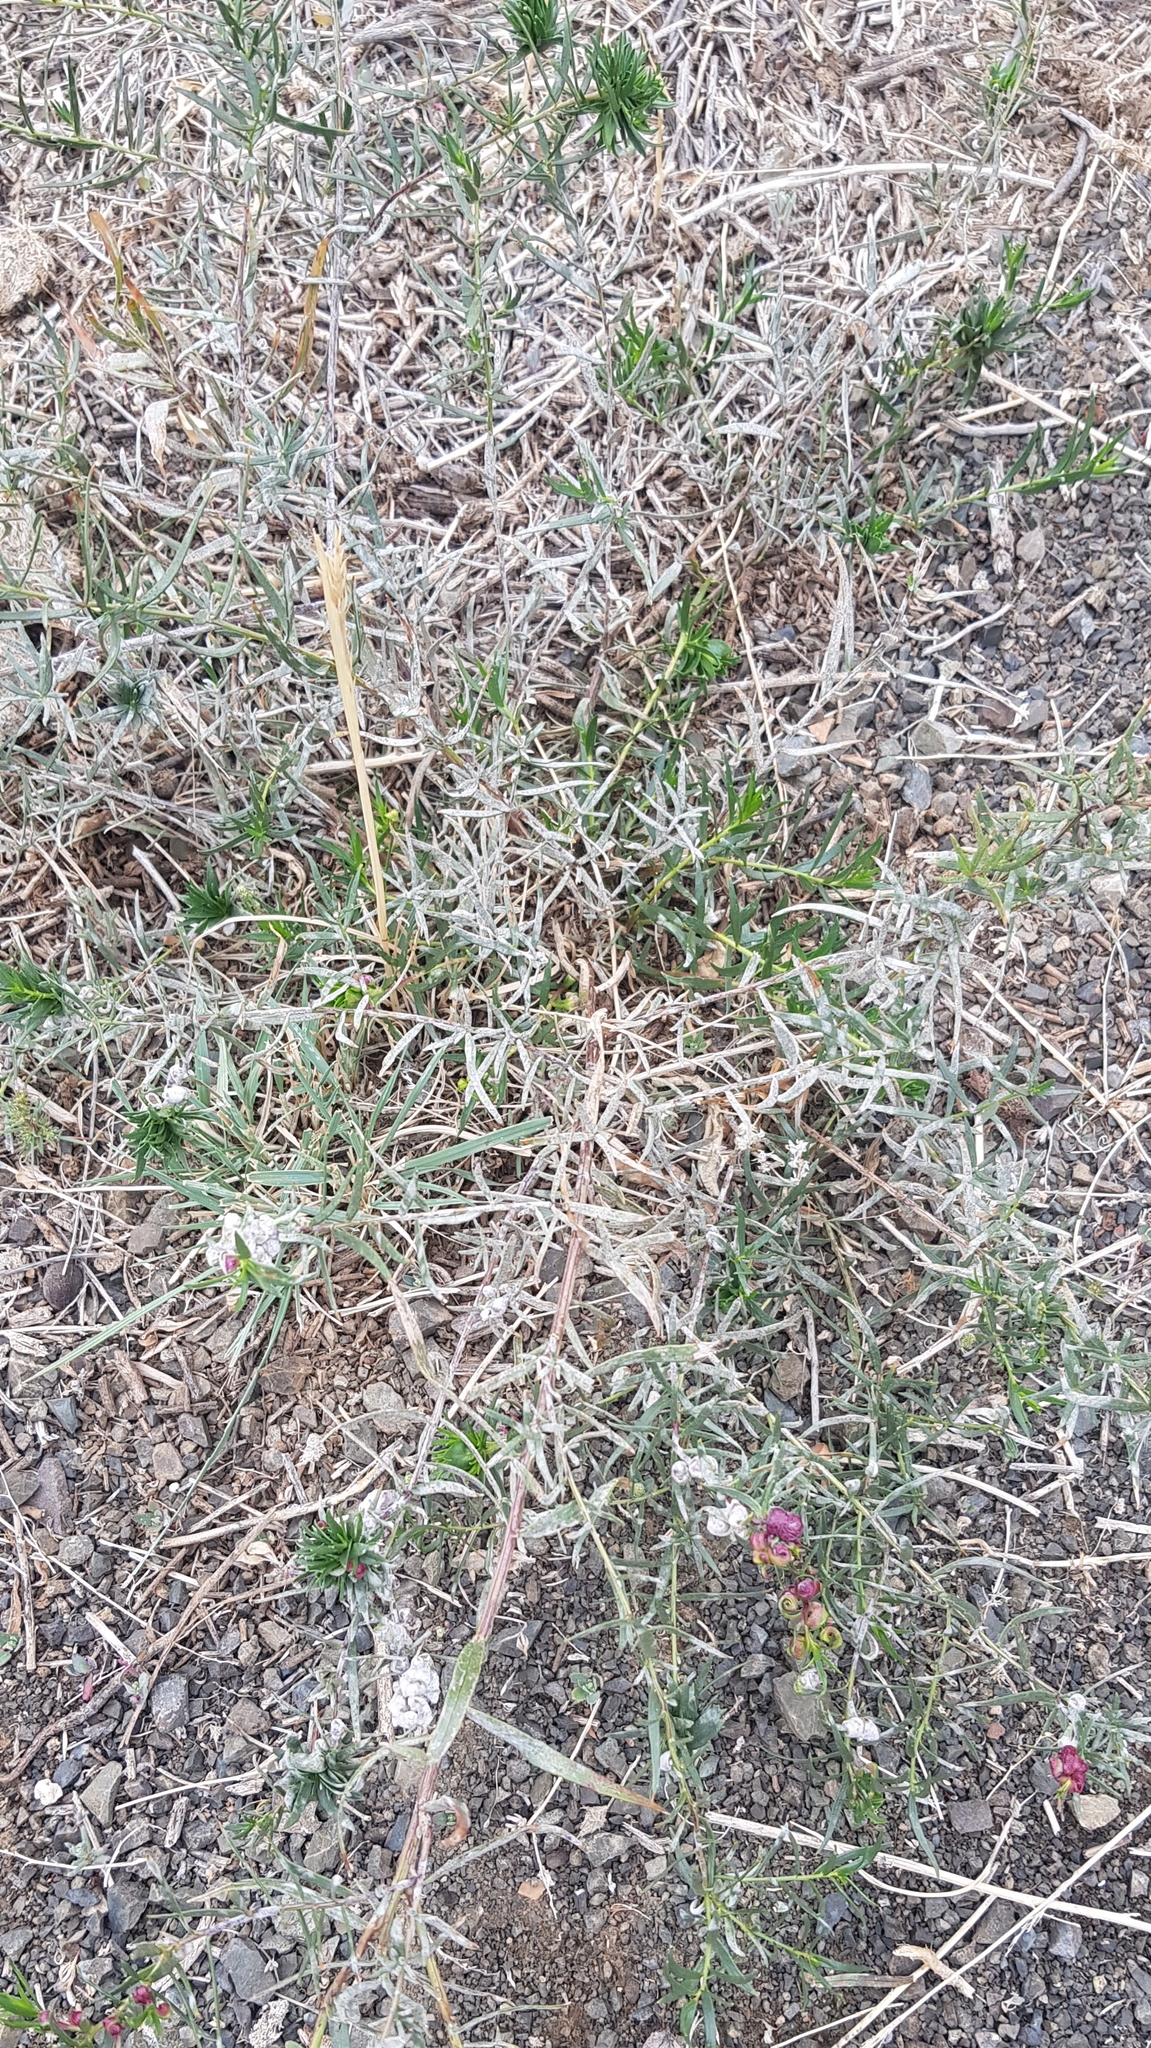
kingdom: Plantae
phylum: Tracheophyta
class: Magnoliopsida
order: Caryophyllales
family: Polygonaceae
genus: Atraphaxis
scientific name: Atraphaxis pungens
